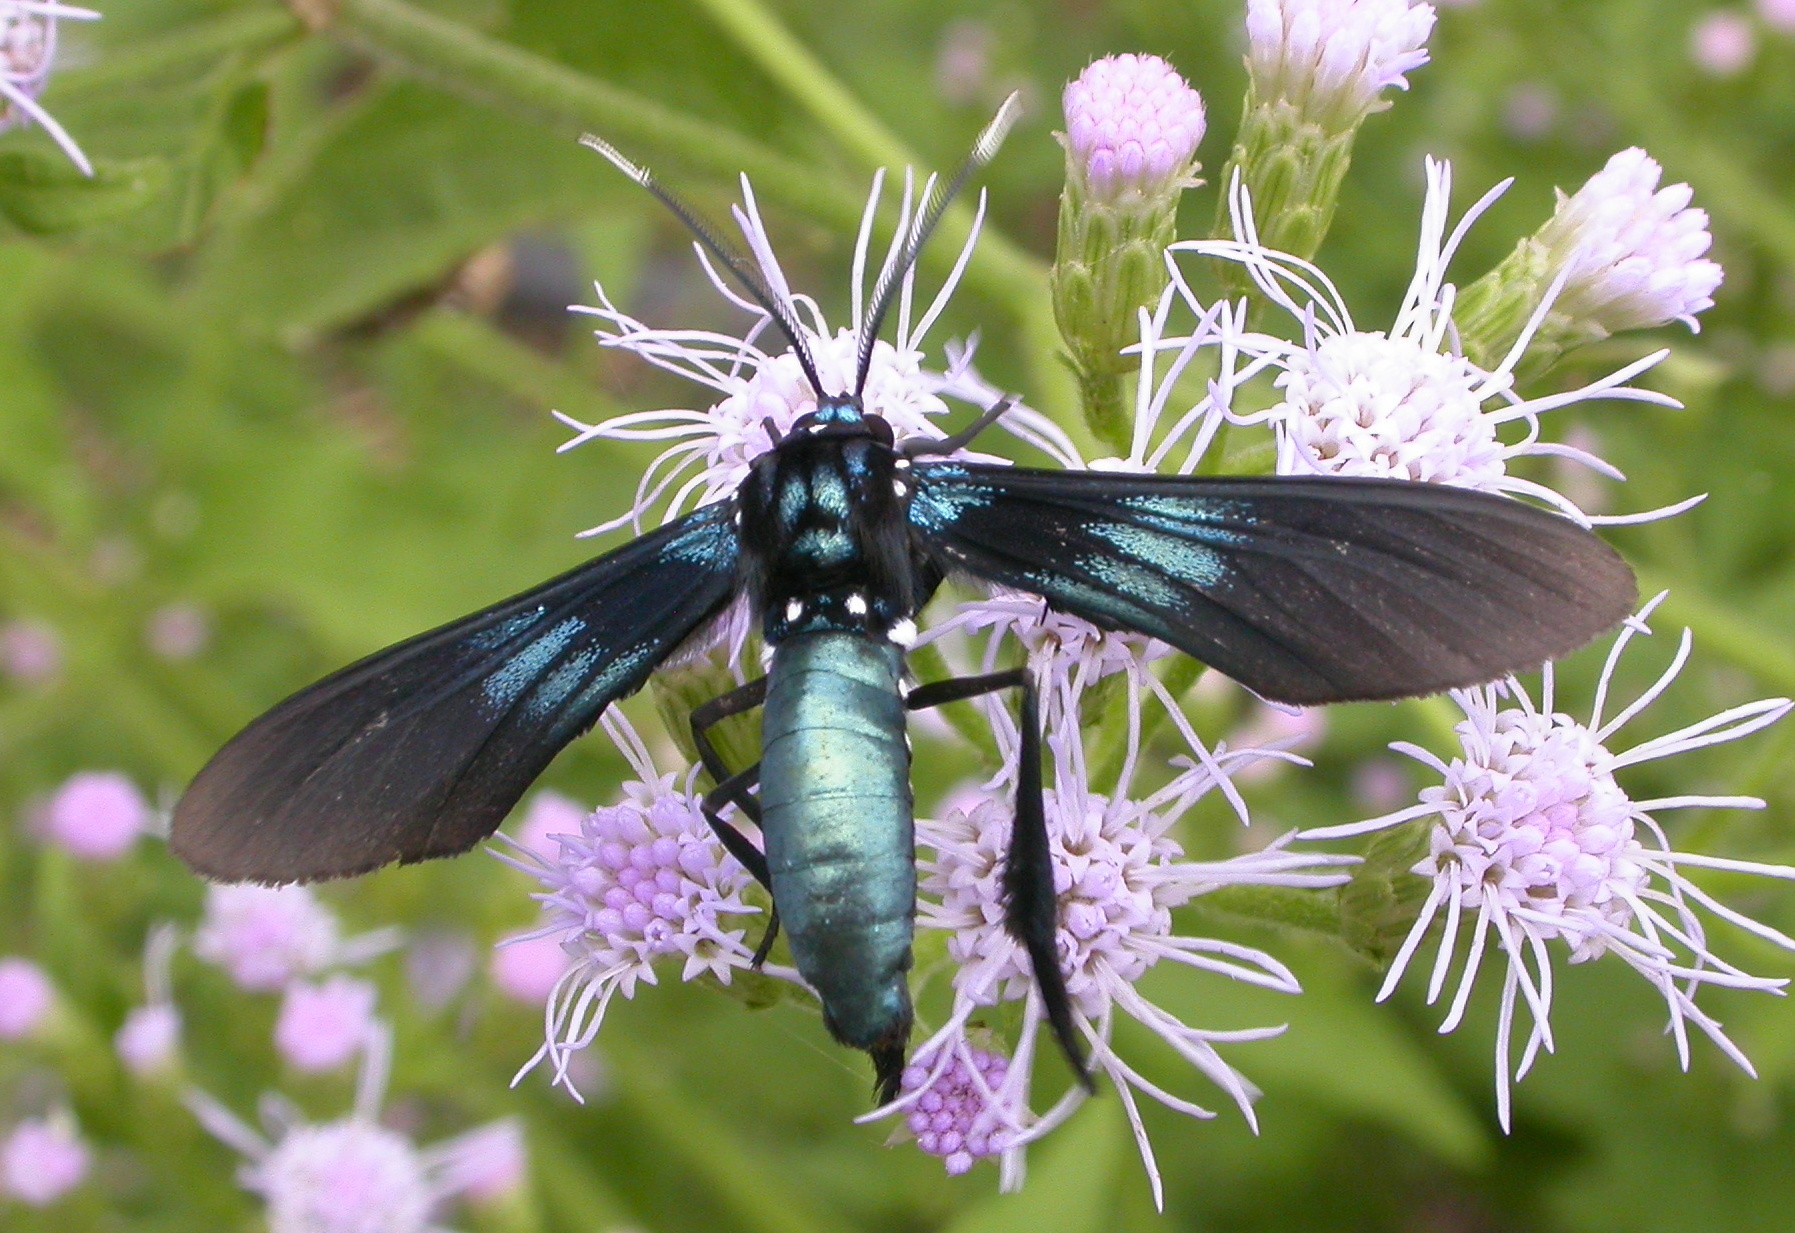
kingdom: Animalia
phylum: Arthropoda
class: Insecta
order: Lepidoptera
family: Erebidae
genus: Macrocneme
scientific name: Macrocneme chrysitis
